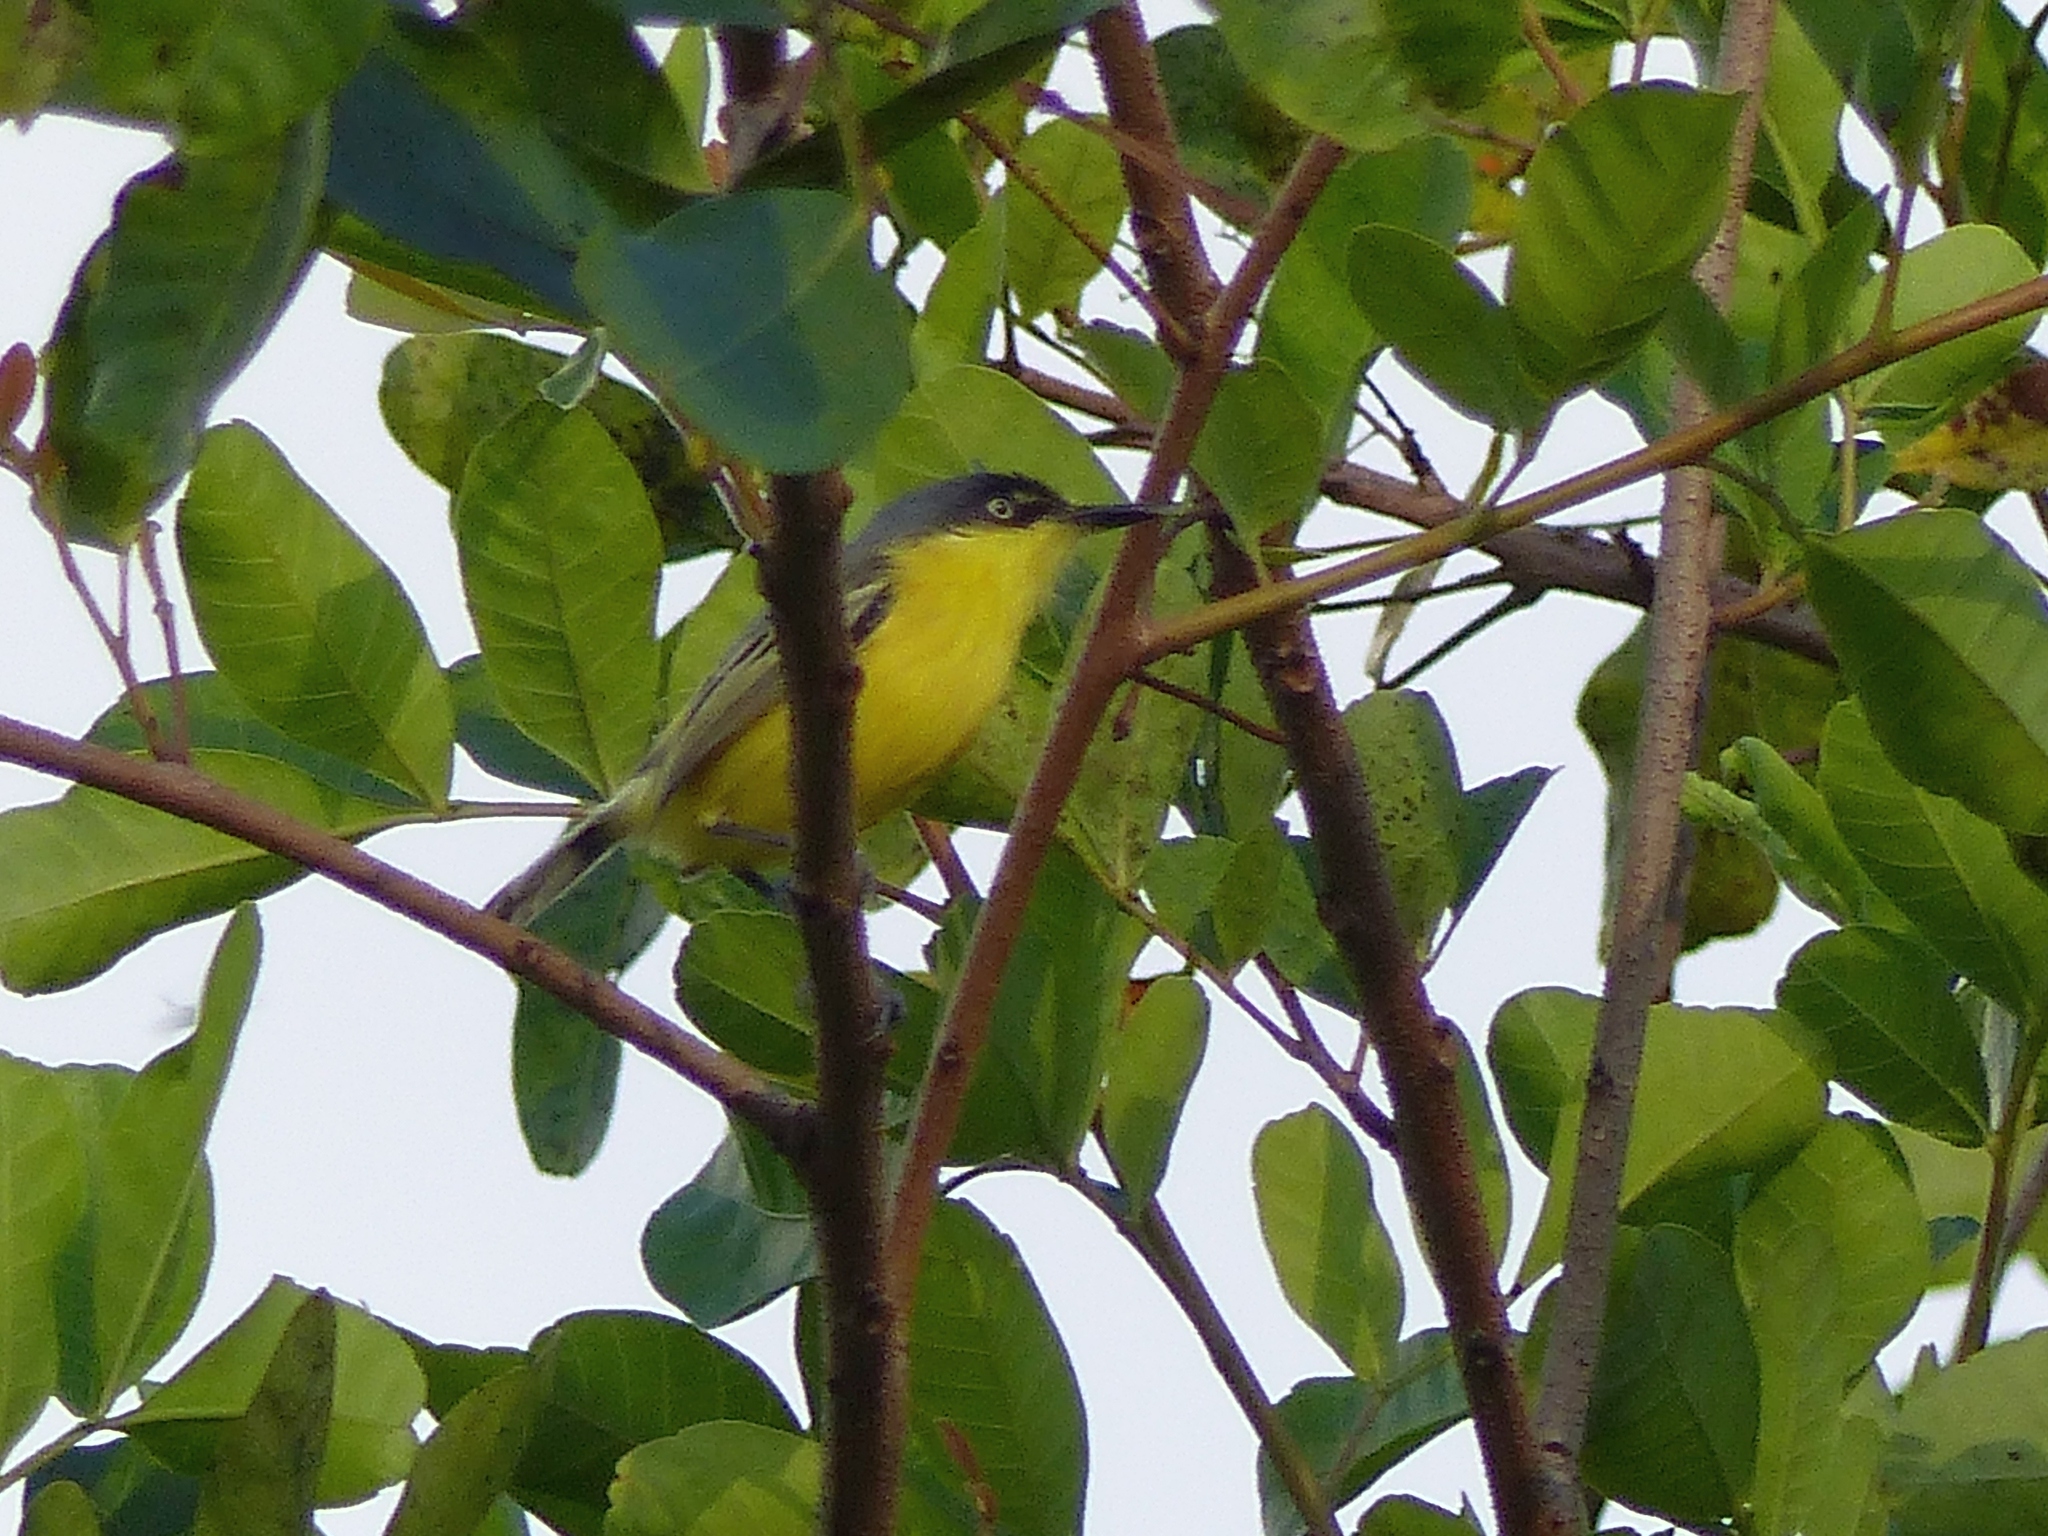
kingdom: Animalia
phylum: Chordata
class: Aves
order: Passeriformes
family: Tyrannidae
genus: Todirostrum
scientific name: Todirostrum cinereum
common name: Common tody-flycatcher
